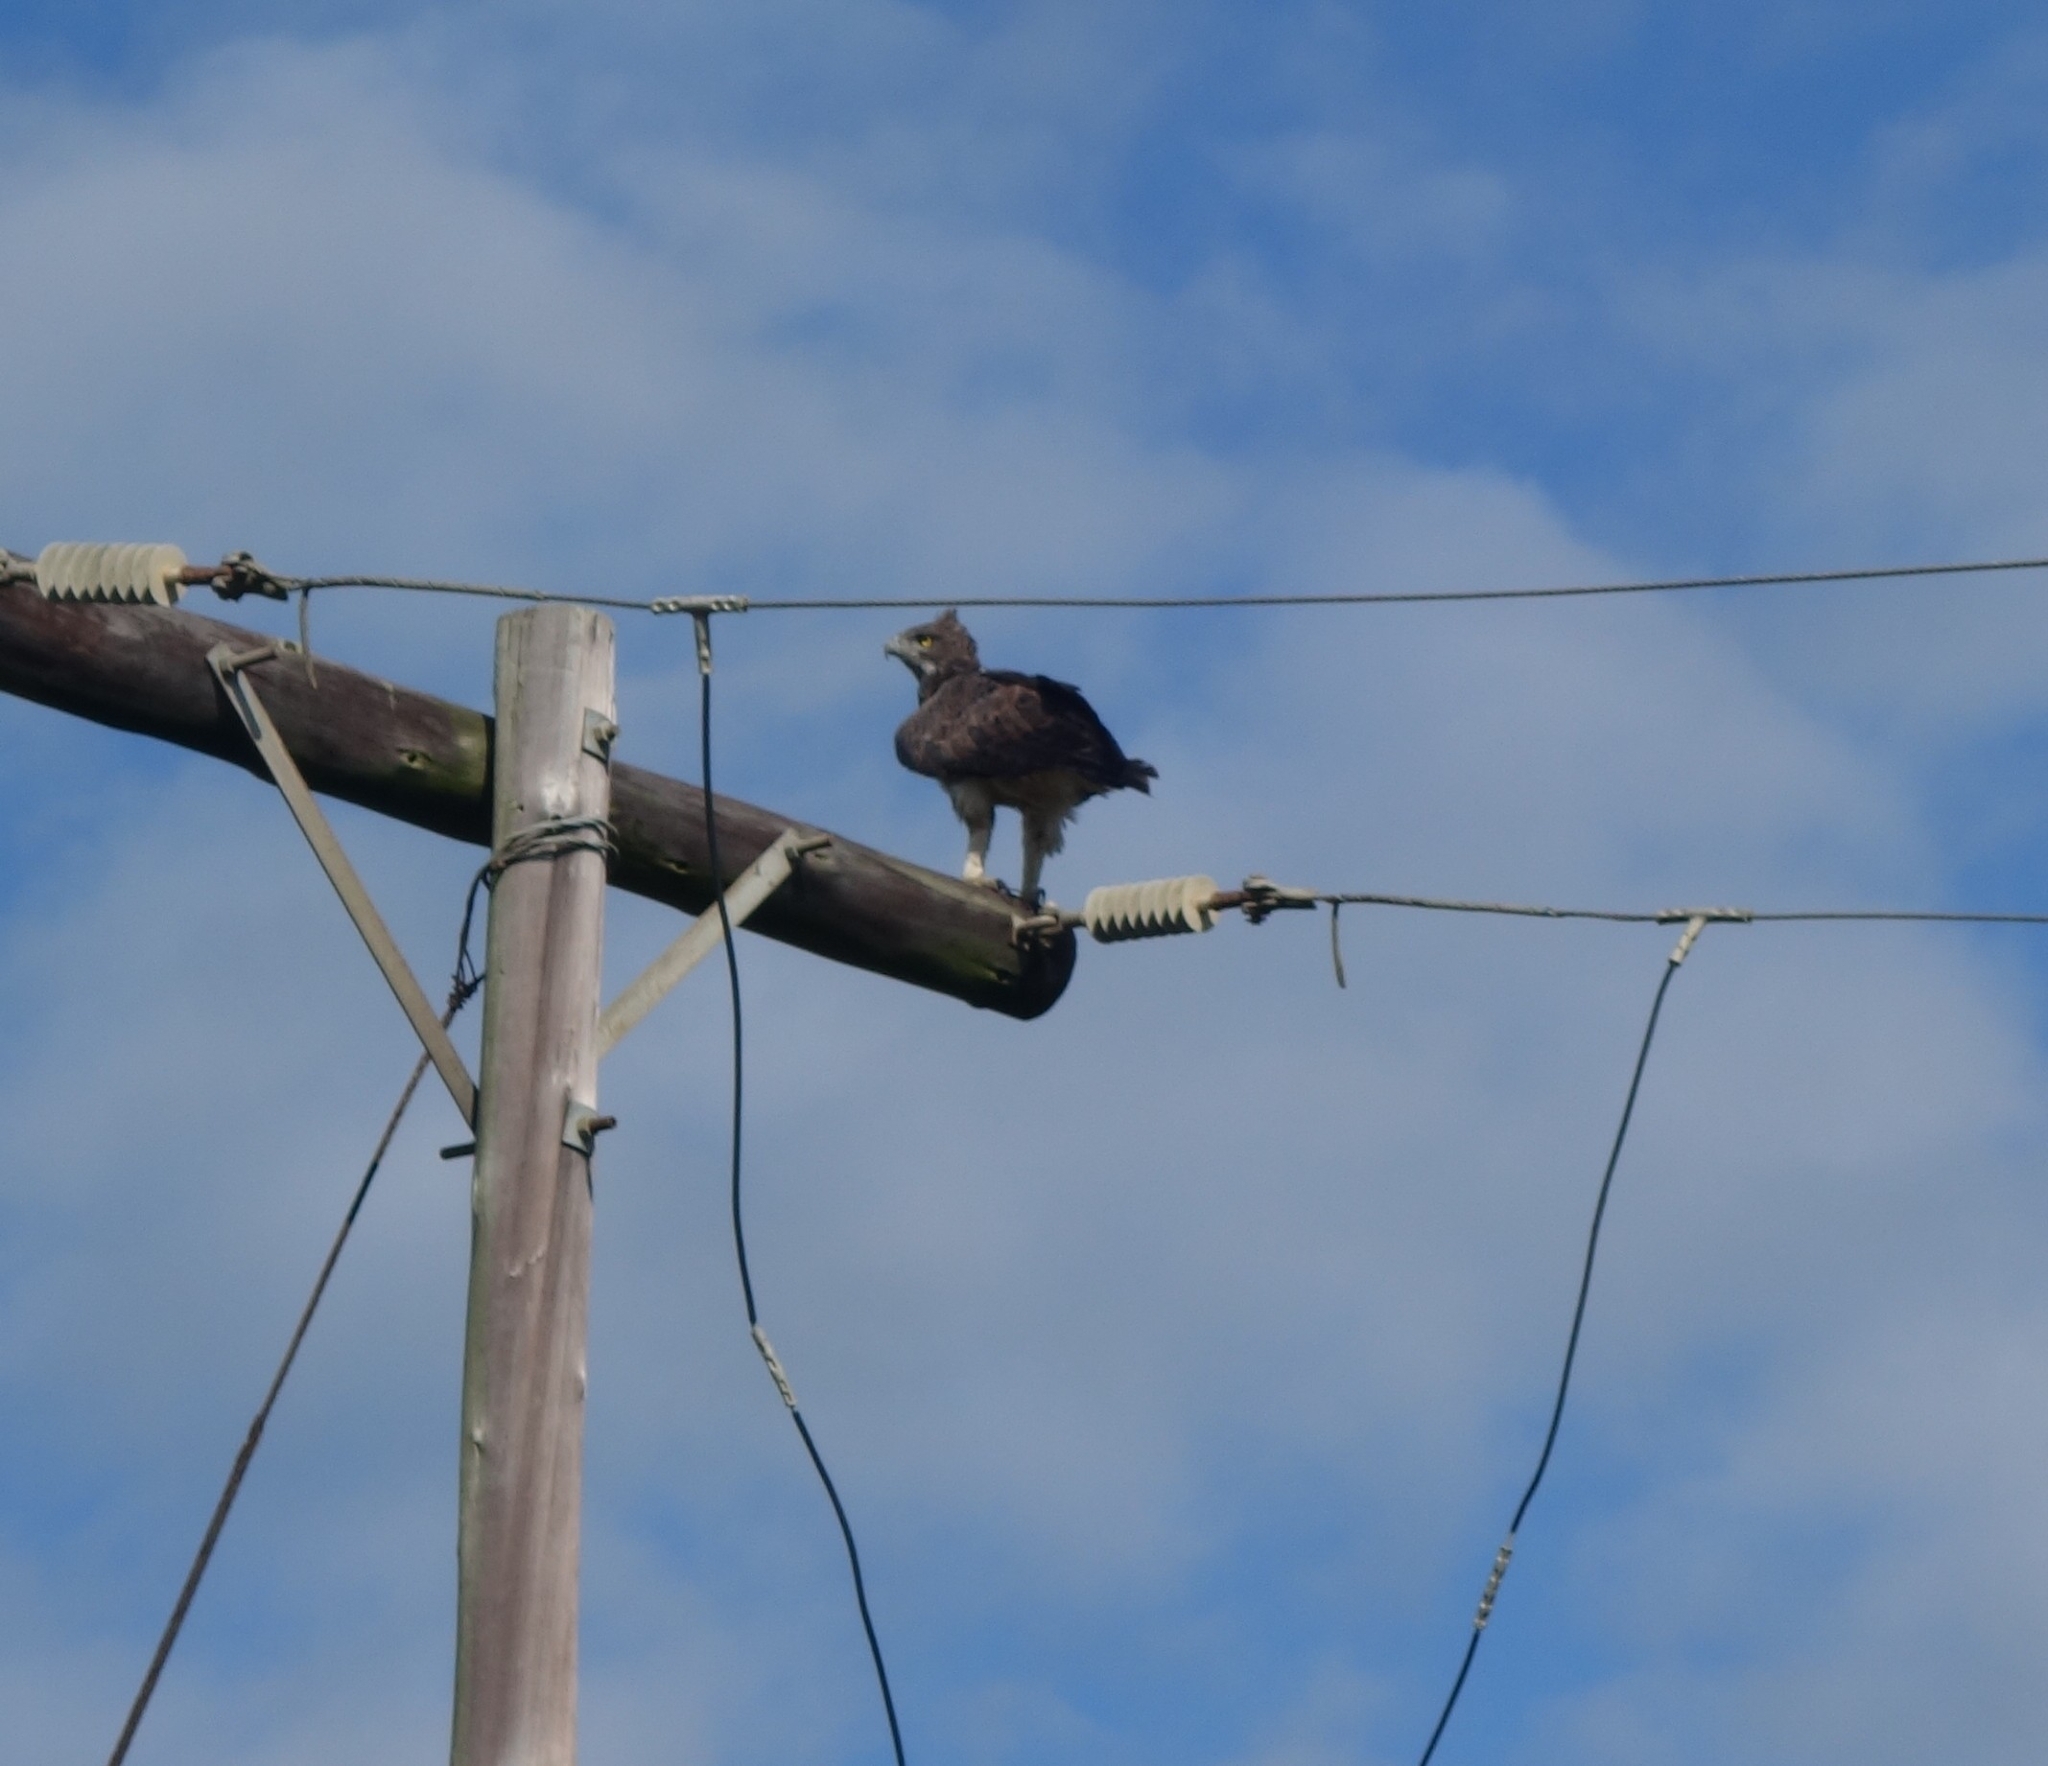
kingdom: Animalia
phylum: Chordata
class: Aves
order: Accipitriformes
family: Accipitridae
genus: Polemaetus
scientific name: Polemaetus bellicosus
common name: Martial eagle
